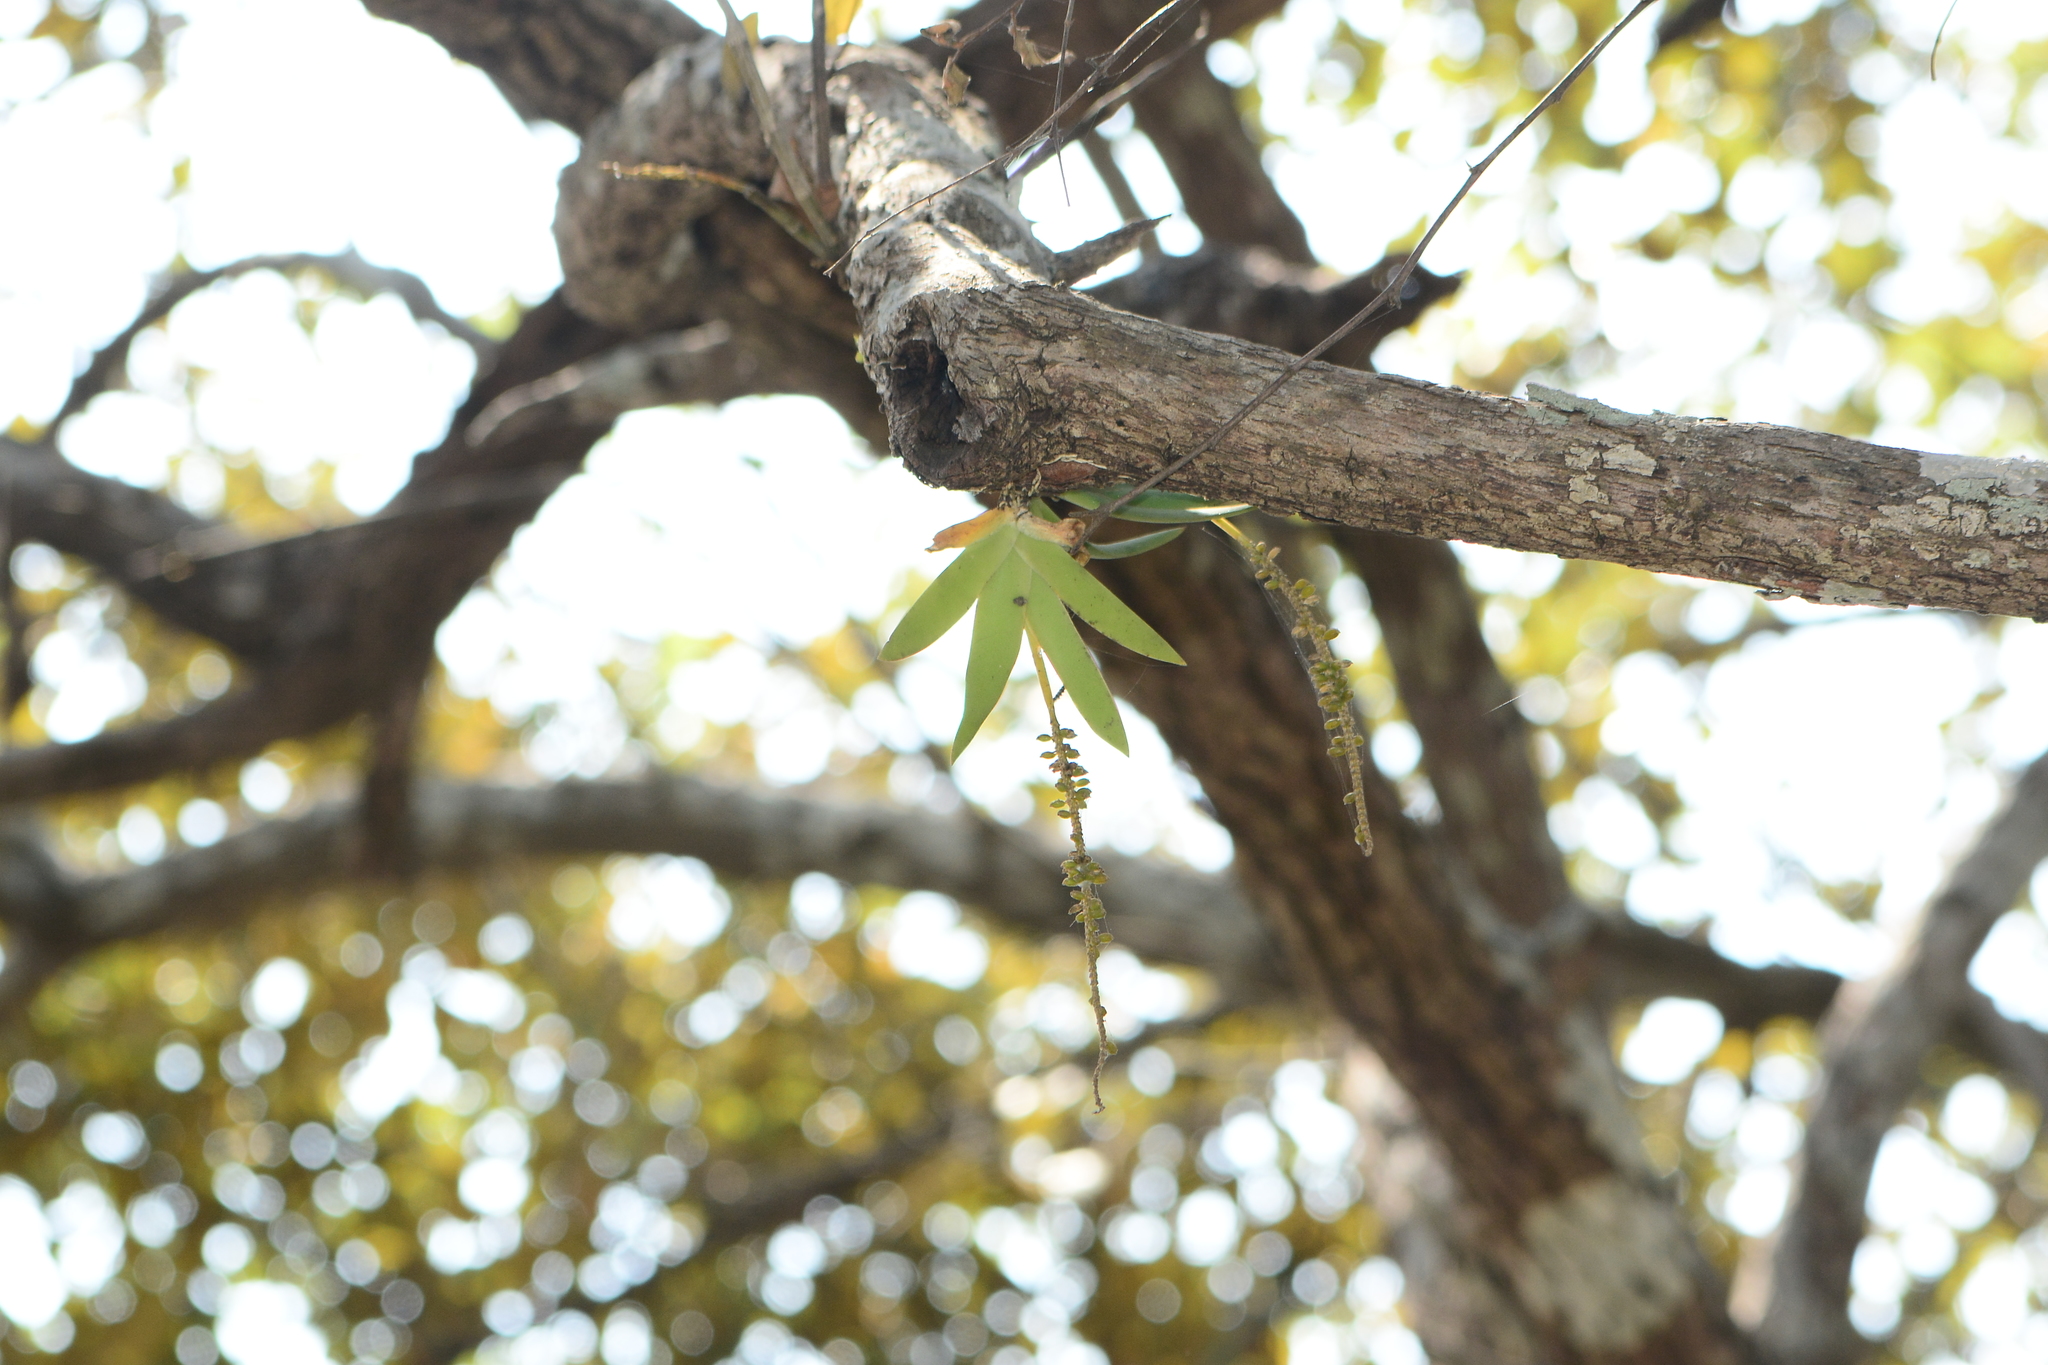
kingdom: Plantae
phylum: Tracheophyta
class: Liliopsida
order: Asparagales
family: Orchidaceae
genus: Oberonia
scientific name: Oberonia mucronata
